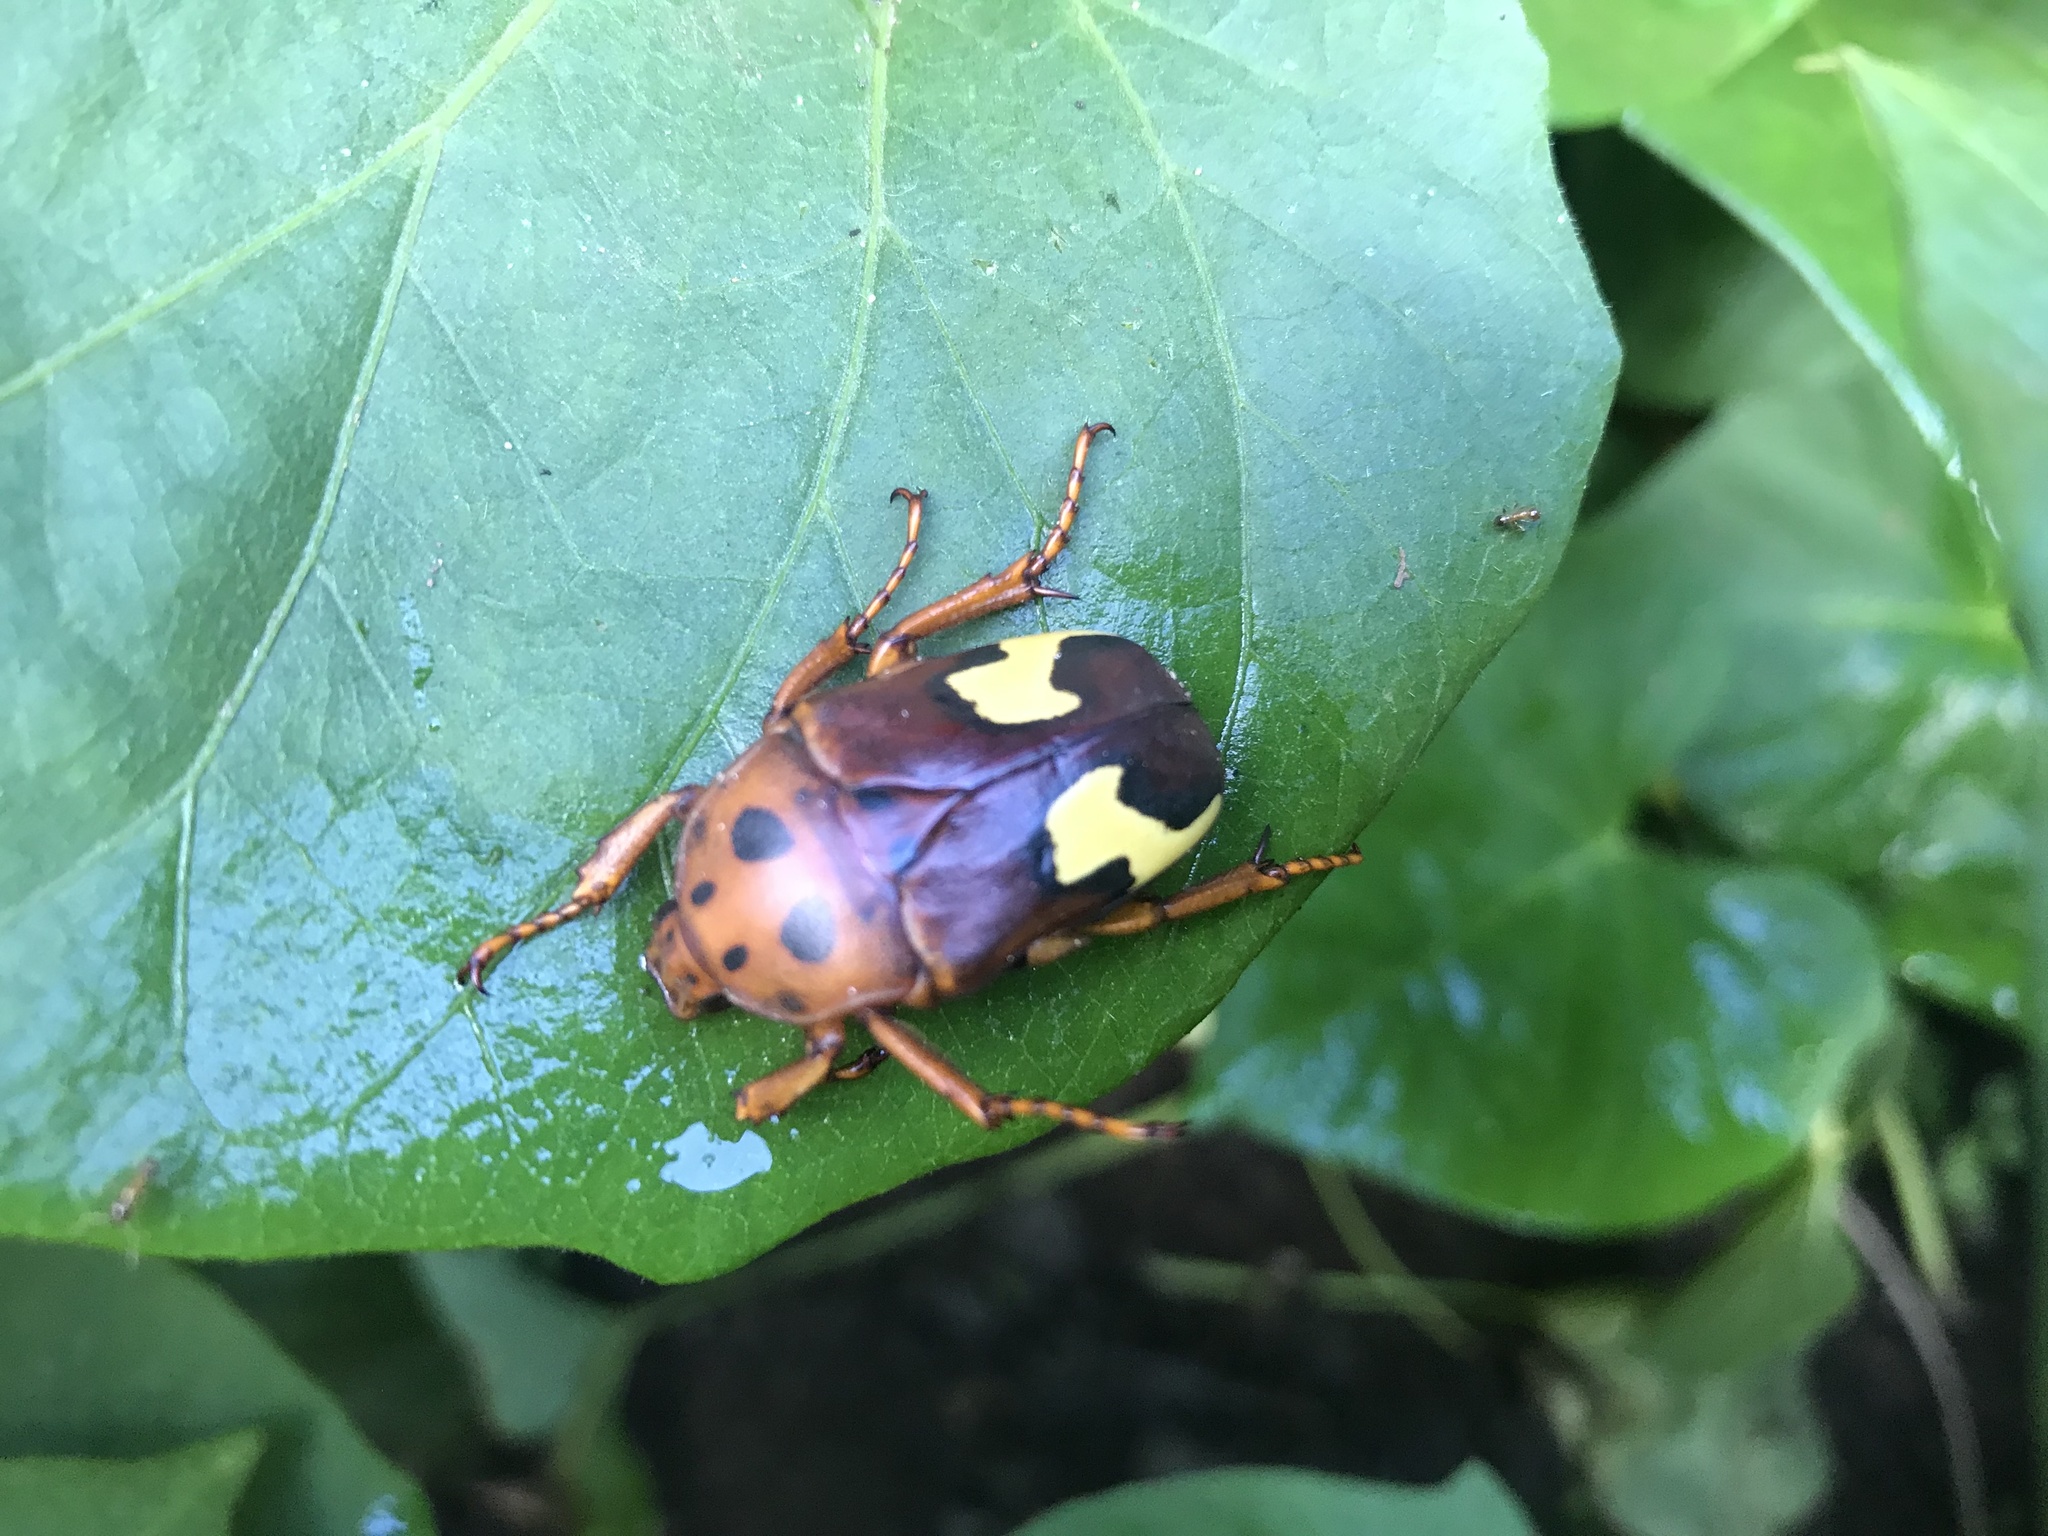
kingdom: Animalia
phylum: Arthropoda
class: Insecta
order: Coleoptera
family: Scarabaeidae
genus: Anisorrhina
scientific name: Anisorrhina flavomaculata
